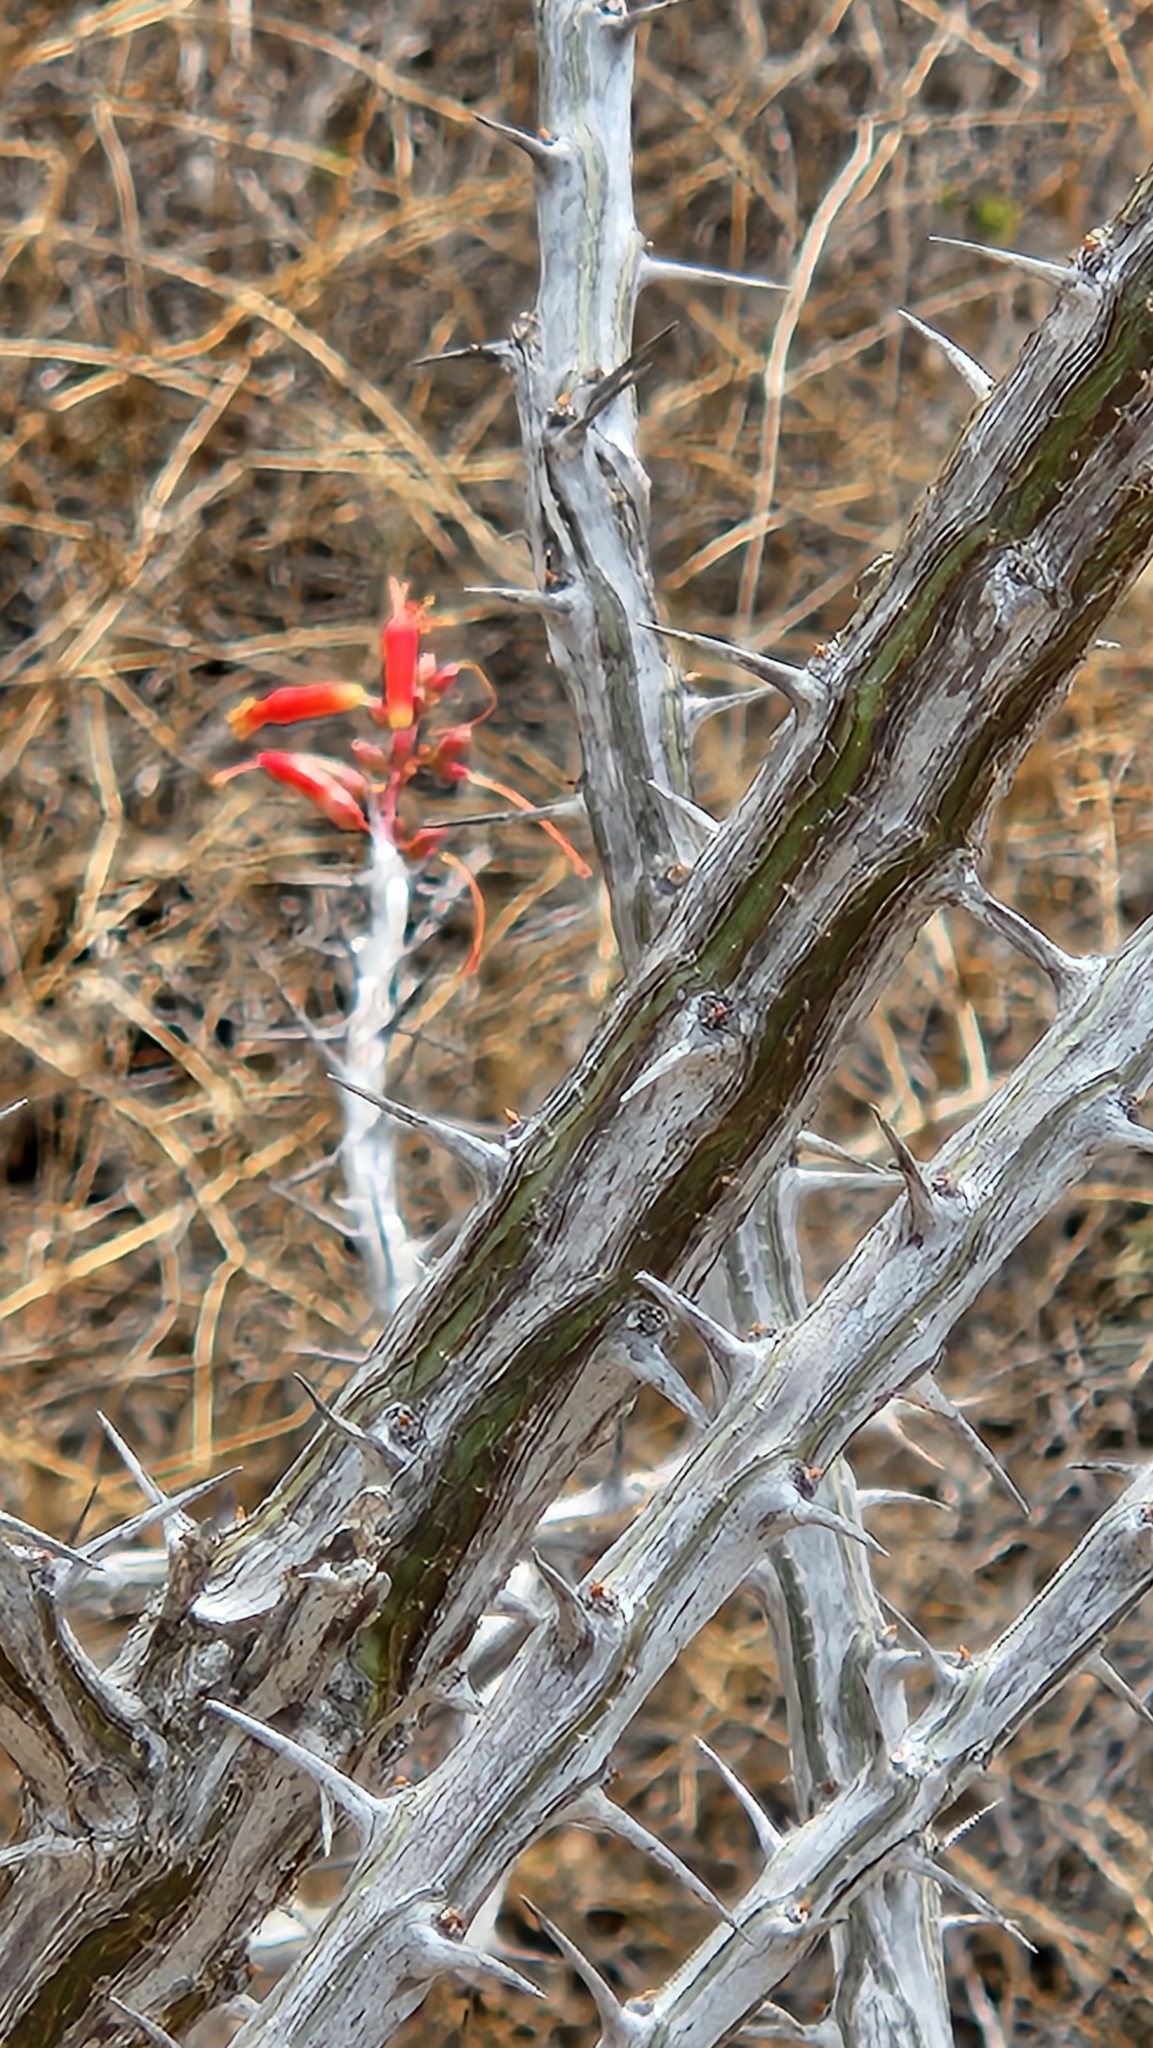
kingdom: Plantae
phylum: Tracheophyta
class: Magnoliopsida
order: Ericales
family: Fouquieriaceae
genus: Fouquieria
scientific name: Fouquieria diguetii
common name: Adam's tree
